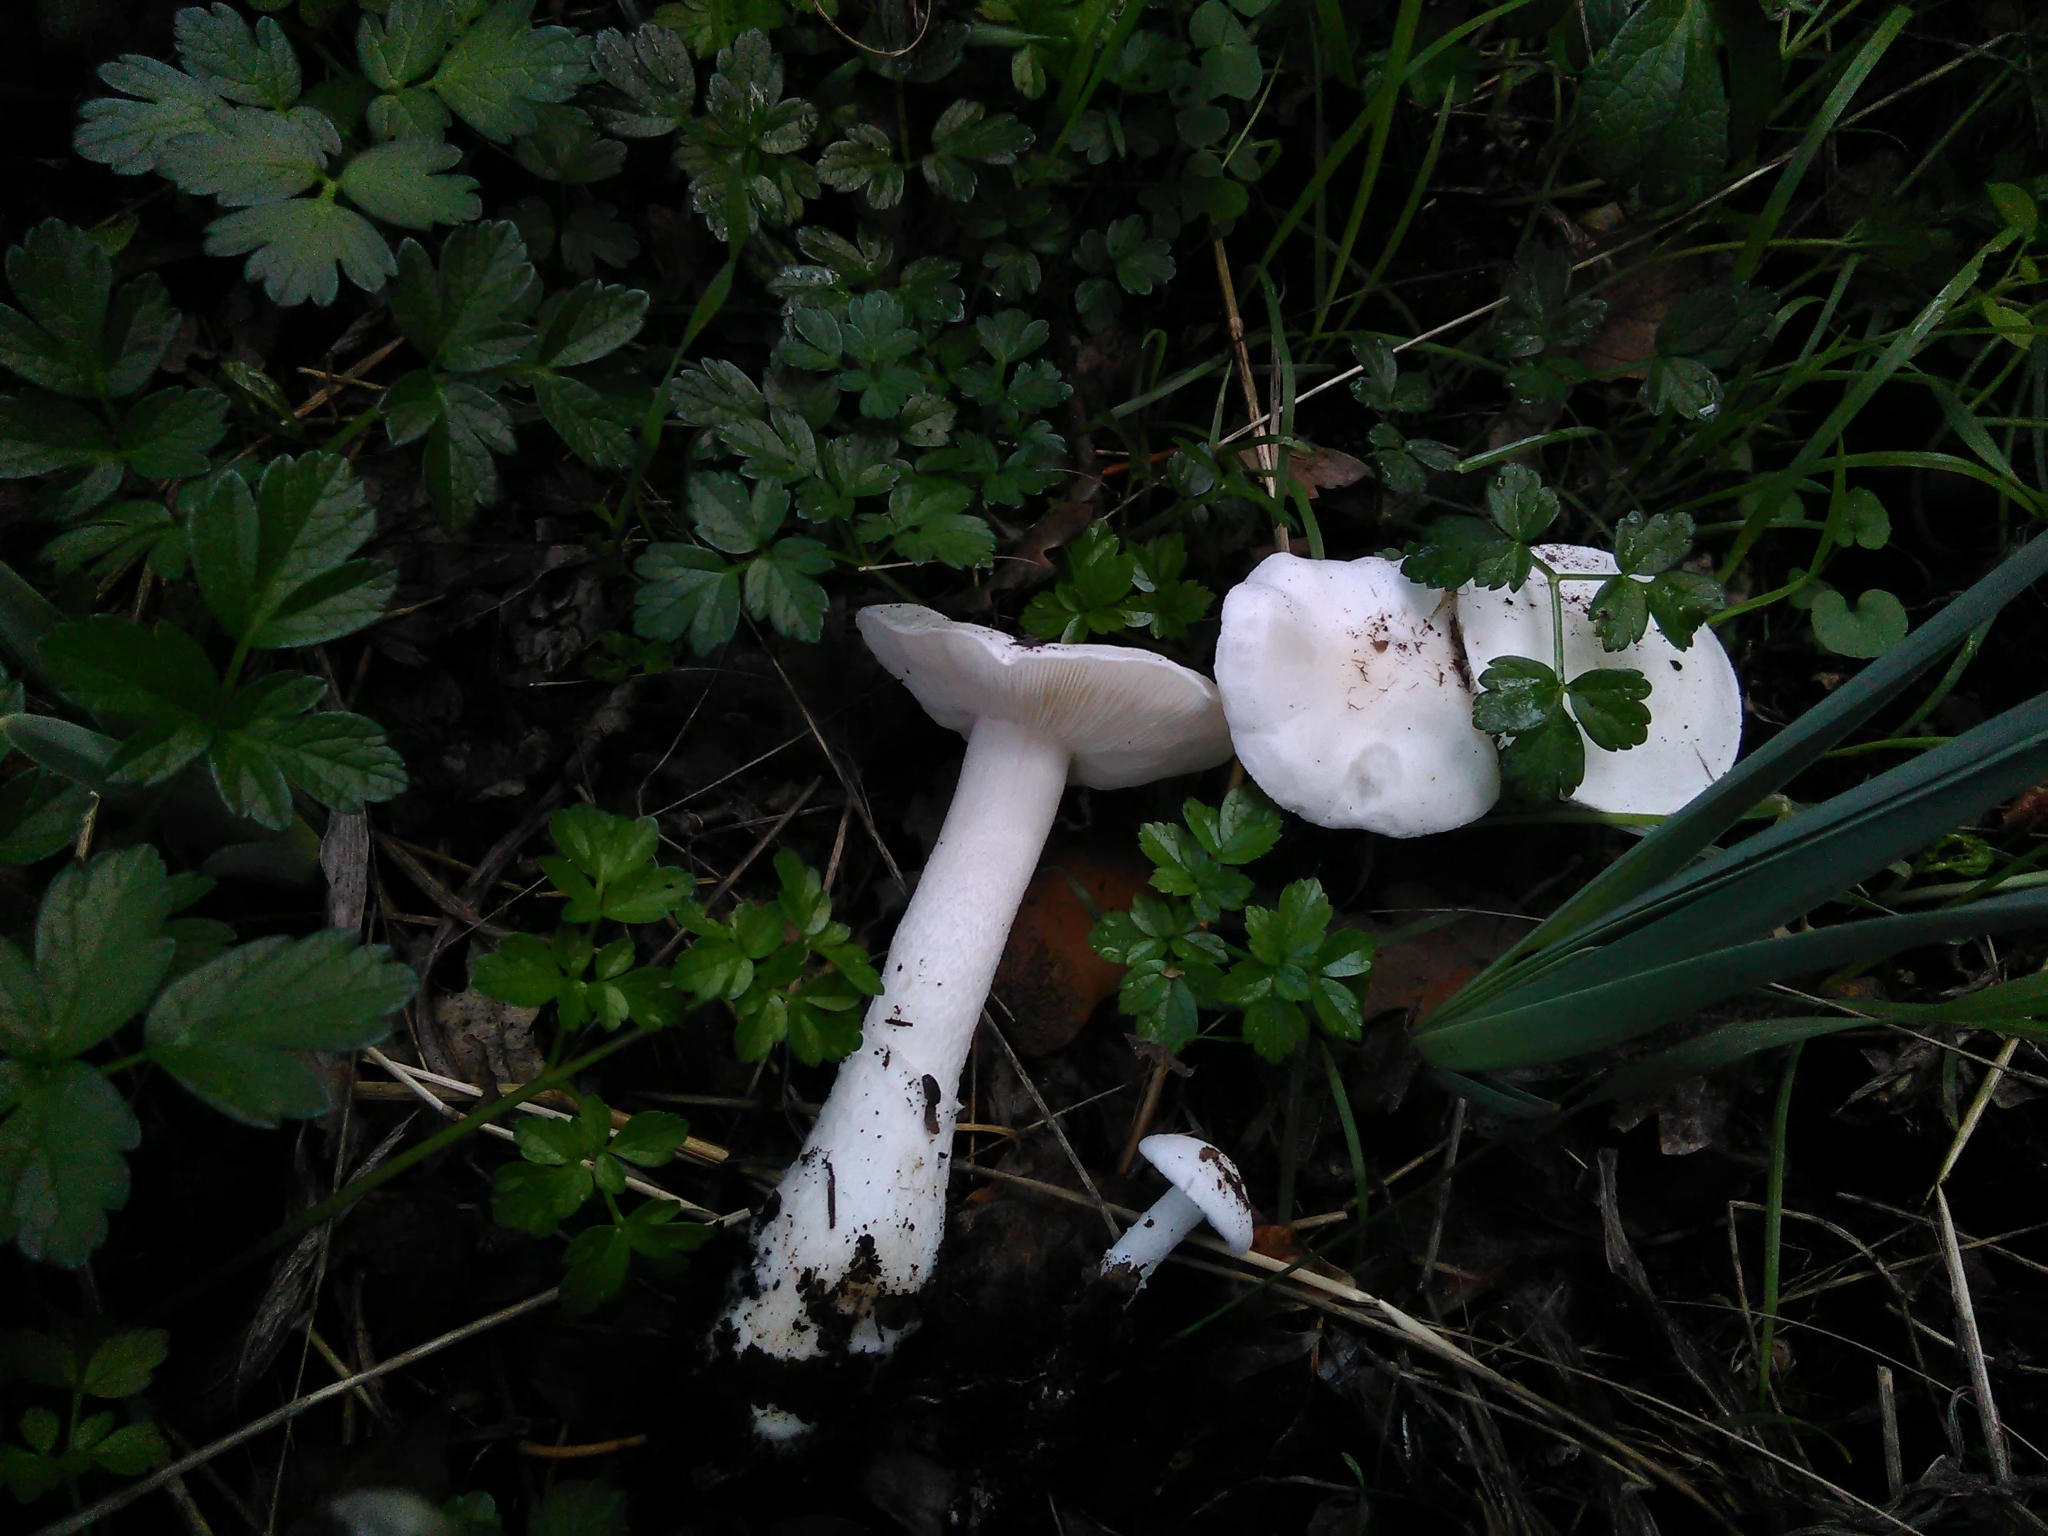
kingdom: Fungi
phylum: Basidiomycota
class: Agaricomycetes
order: Agaricales
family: Lyophyllaceae
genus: Tricholomella
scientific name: Tricholomella constricta
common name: Mealy domecap
